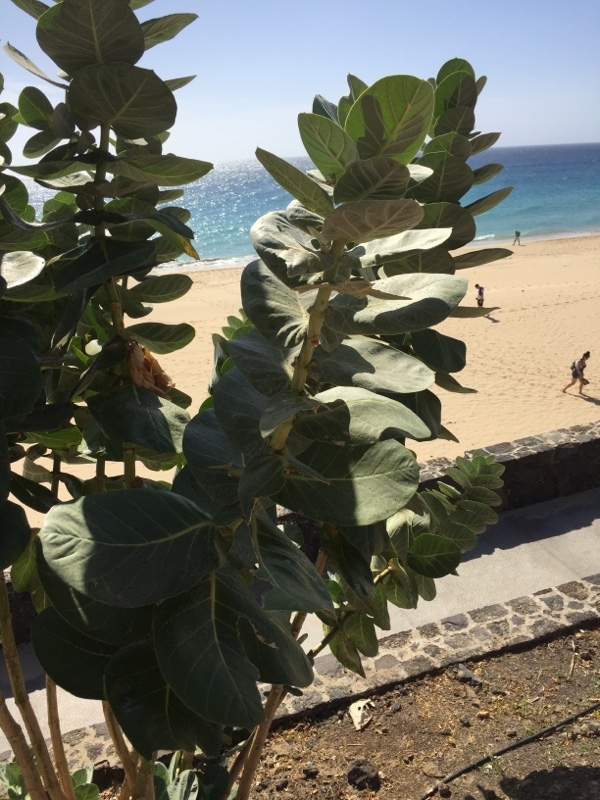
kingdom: Plantae
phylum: Tracheophyta
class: Magnoliopsida
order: Gentianales
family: Apocynaceae
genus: Calotropis
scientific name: Calotropis procera
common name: Roostertree
